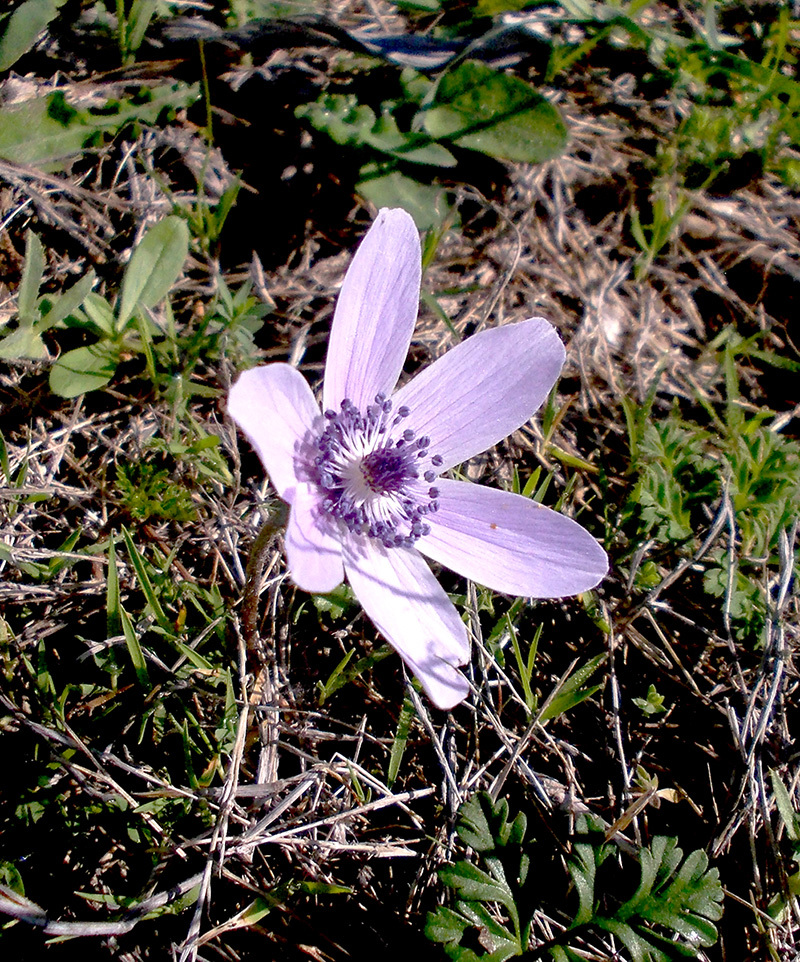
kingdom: Plantae
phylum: Tracheophyta
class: Magnoliopsida
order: Ranunculales
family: Ranunculaceae
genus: Anemone
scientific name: Anemone coronaria
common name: Poppy anemone
